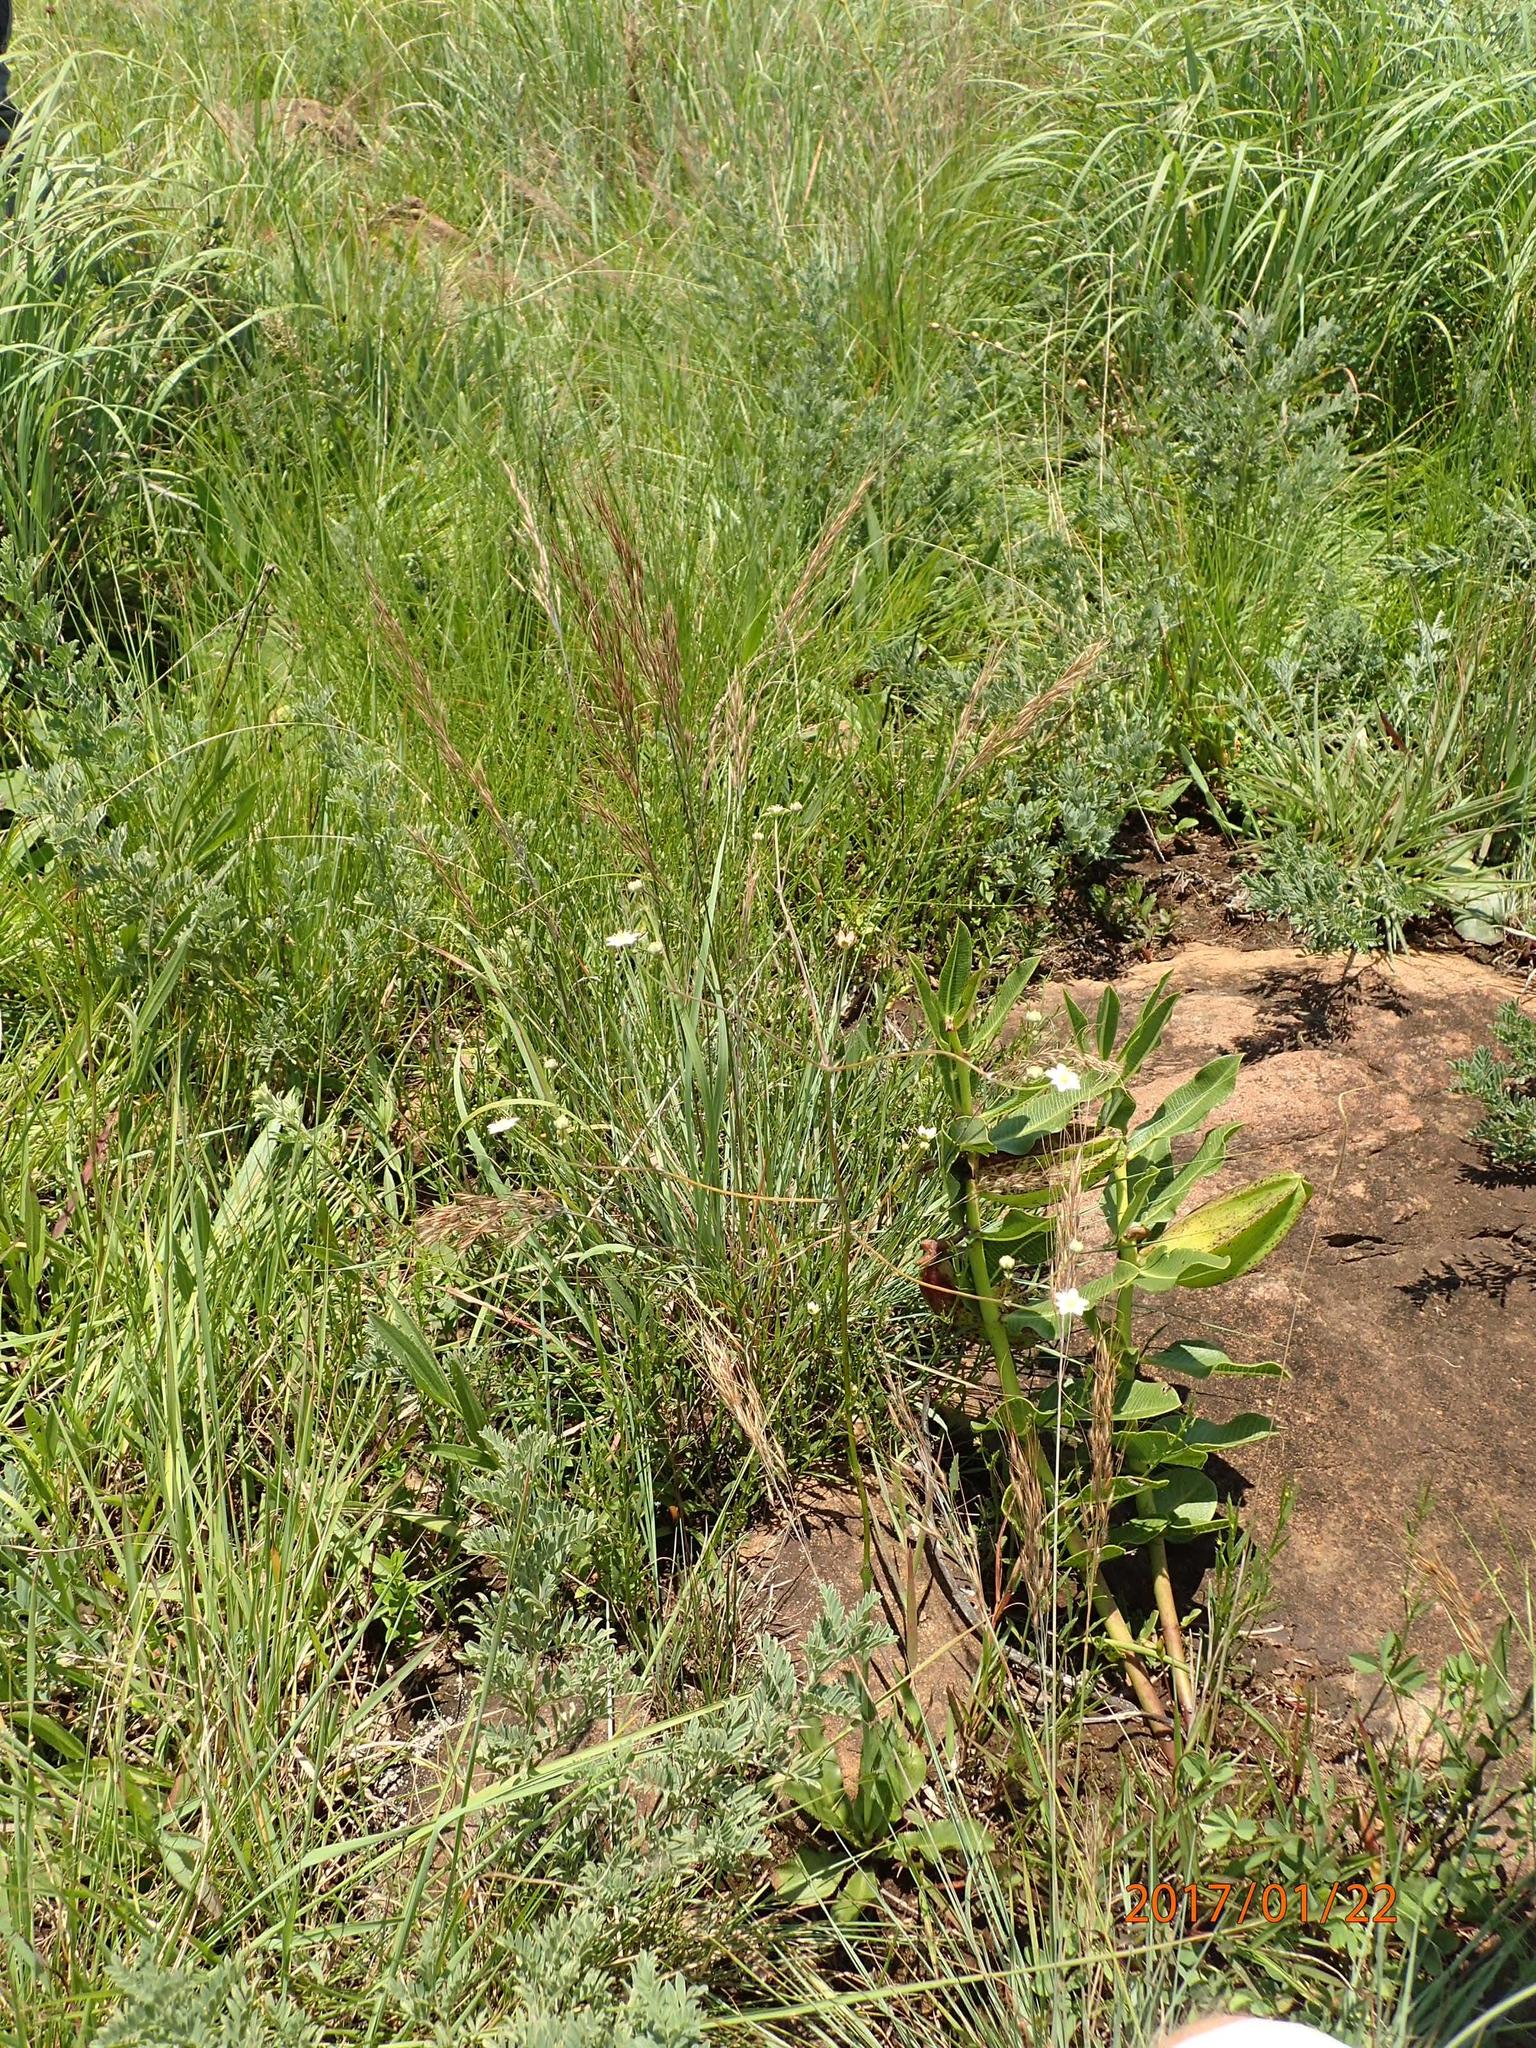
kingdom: Plantae
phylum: Tracheophyta
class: Magnoliopsida
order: Apiales
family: Apiaceae
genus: Alepidea
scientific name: Alepidea peduncularis
